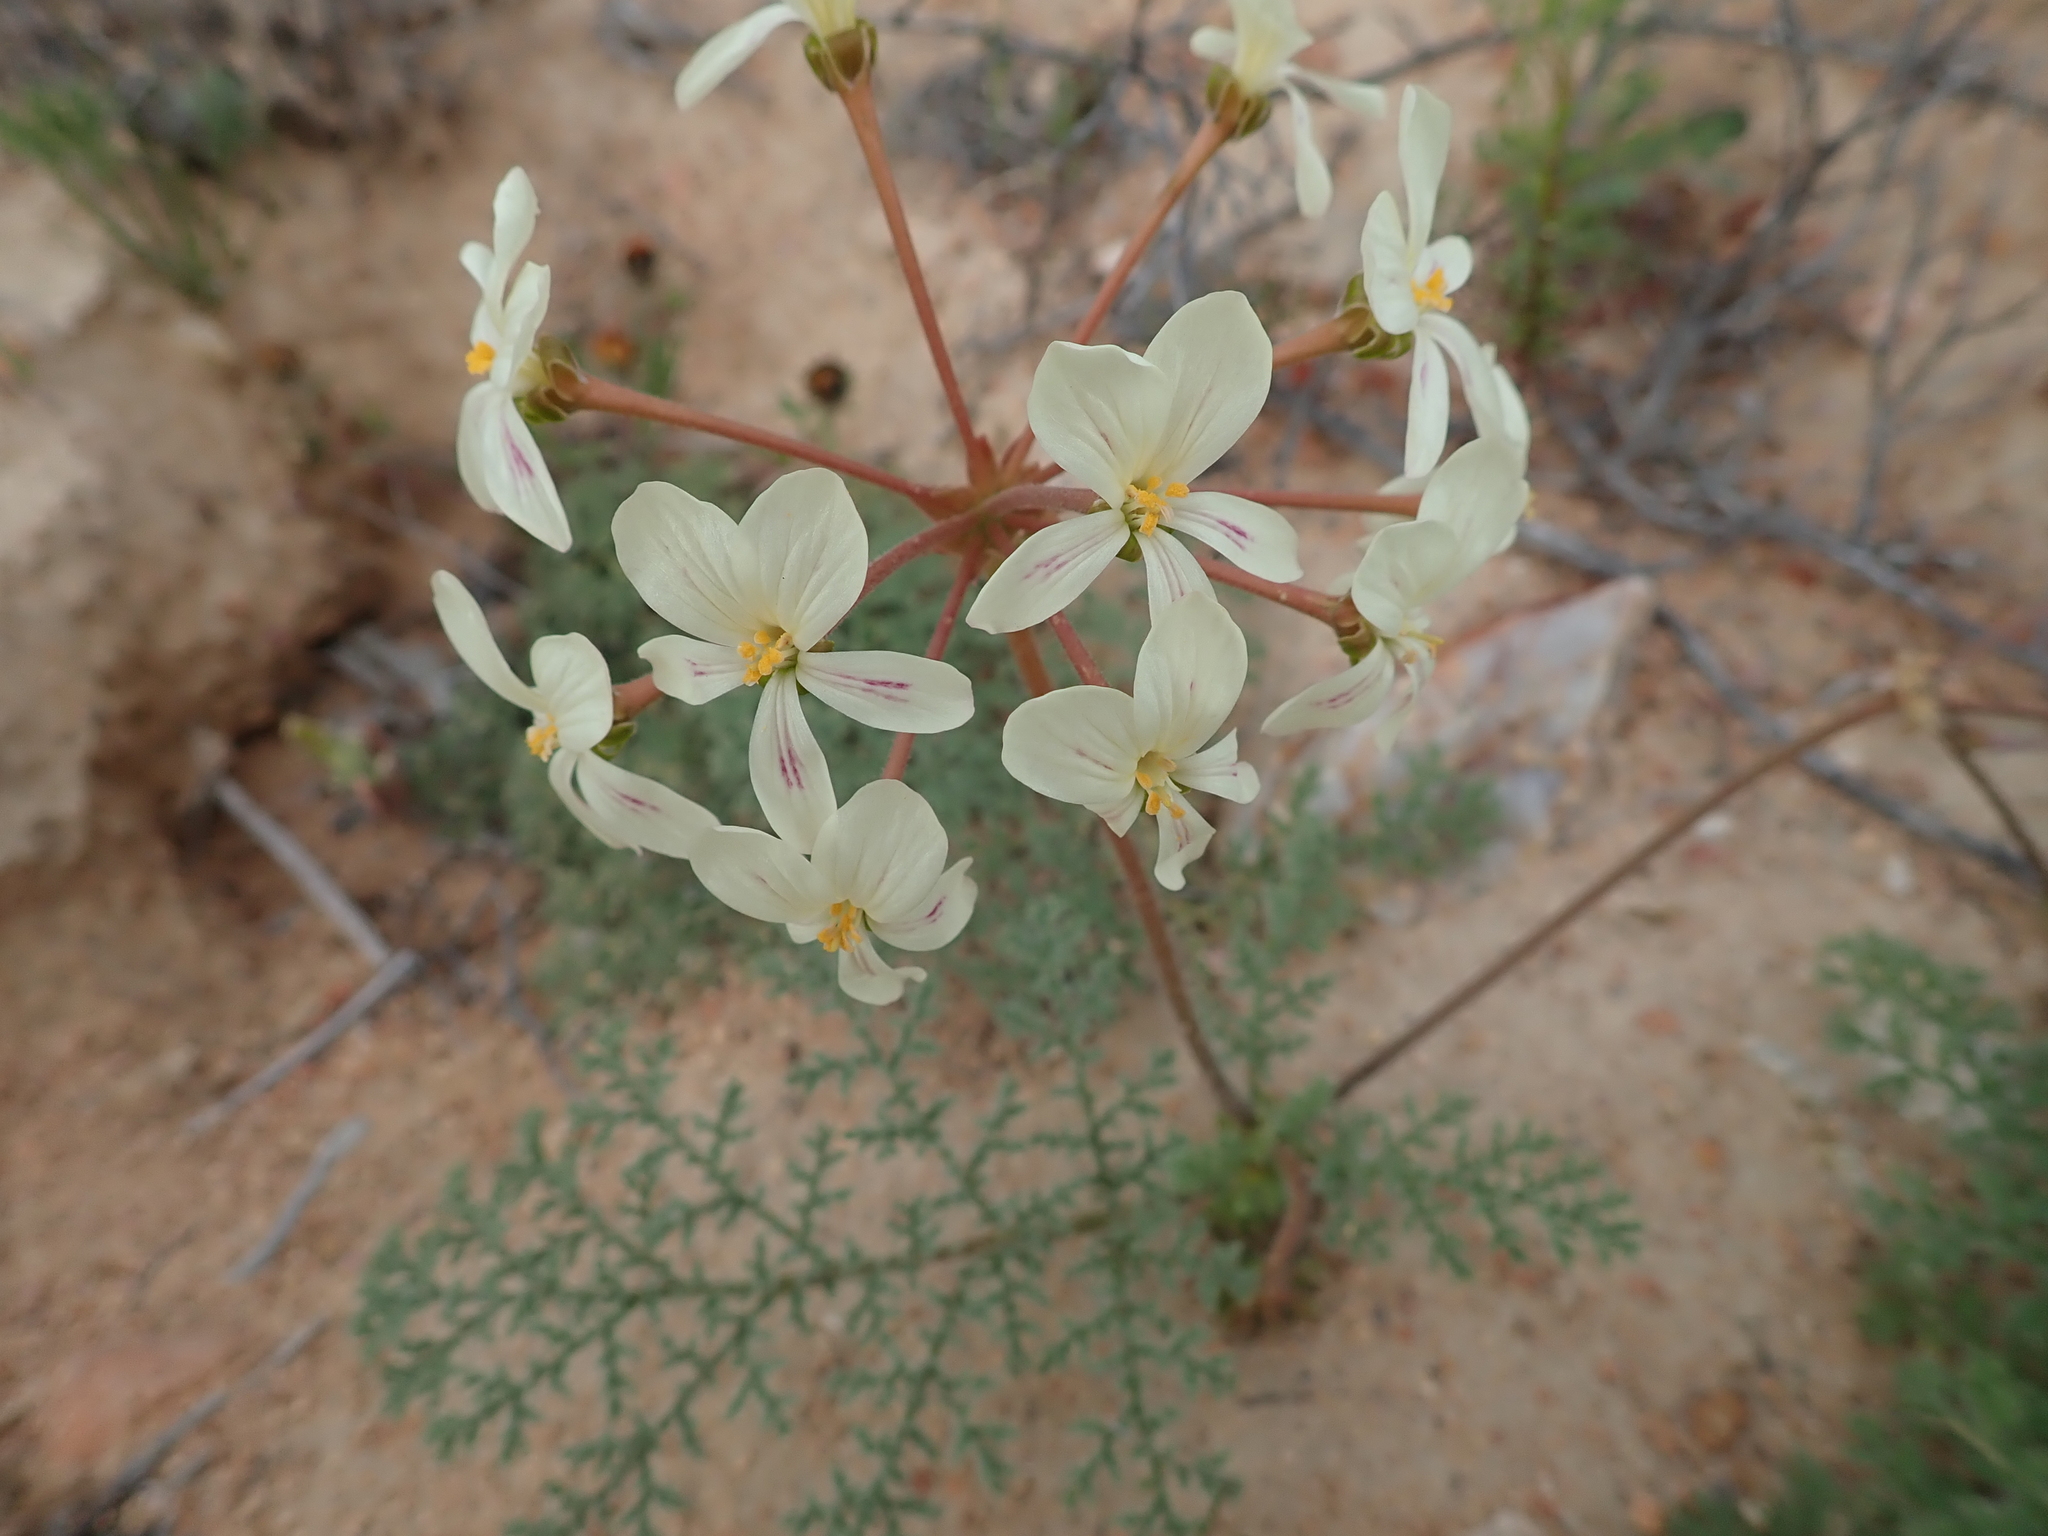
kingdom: Plantae
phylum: Tracheophyta
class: Magnoliopsida
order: Geraniales
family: Geraniaceae
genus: Pelargonium
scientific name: Pelargonium triste
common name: Night-scent pelargonium
